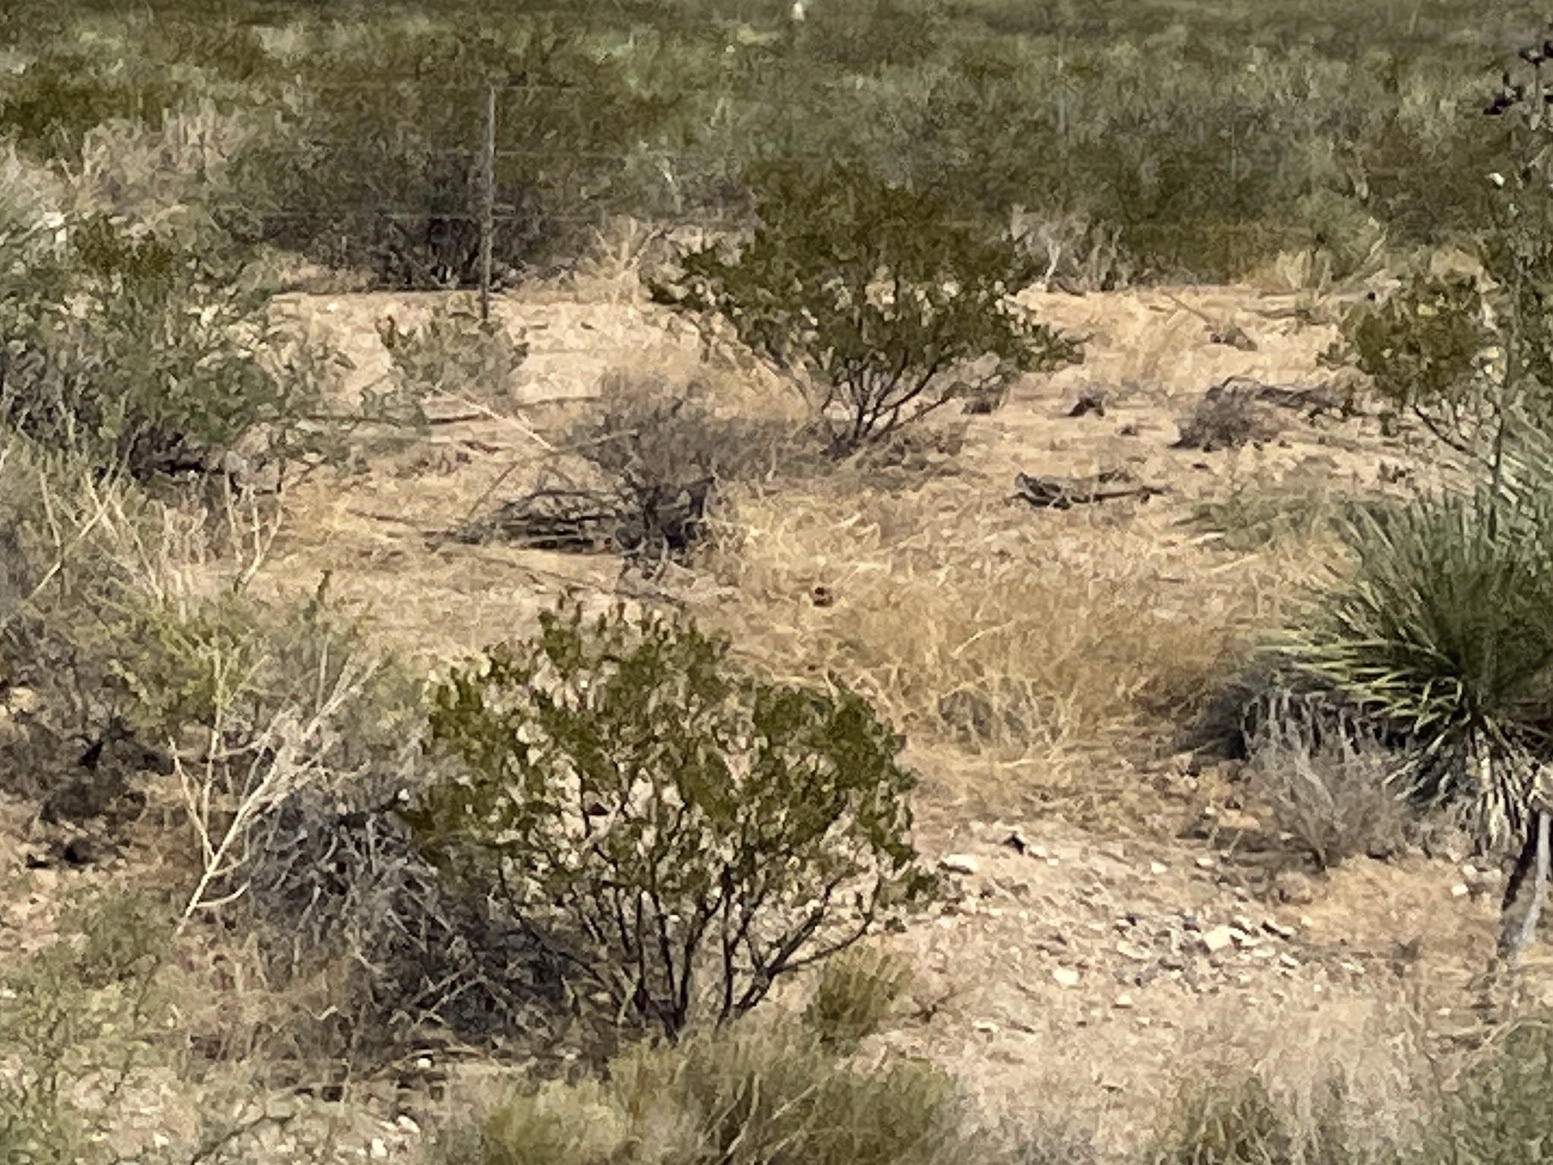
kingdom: Plantae
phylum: Tracheophyta
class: Magnoliopsida
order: Zygophyllales
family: Zygophyllaceae
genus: Larrea
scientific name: Larrea tridentata
